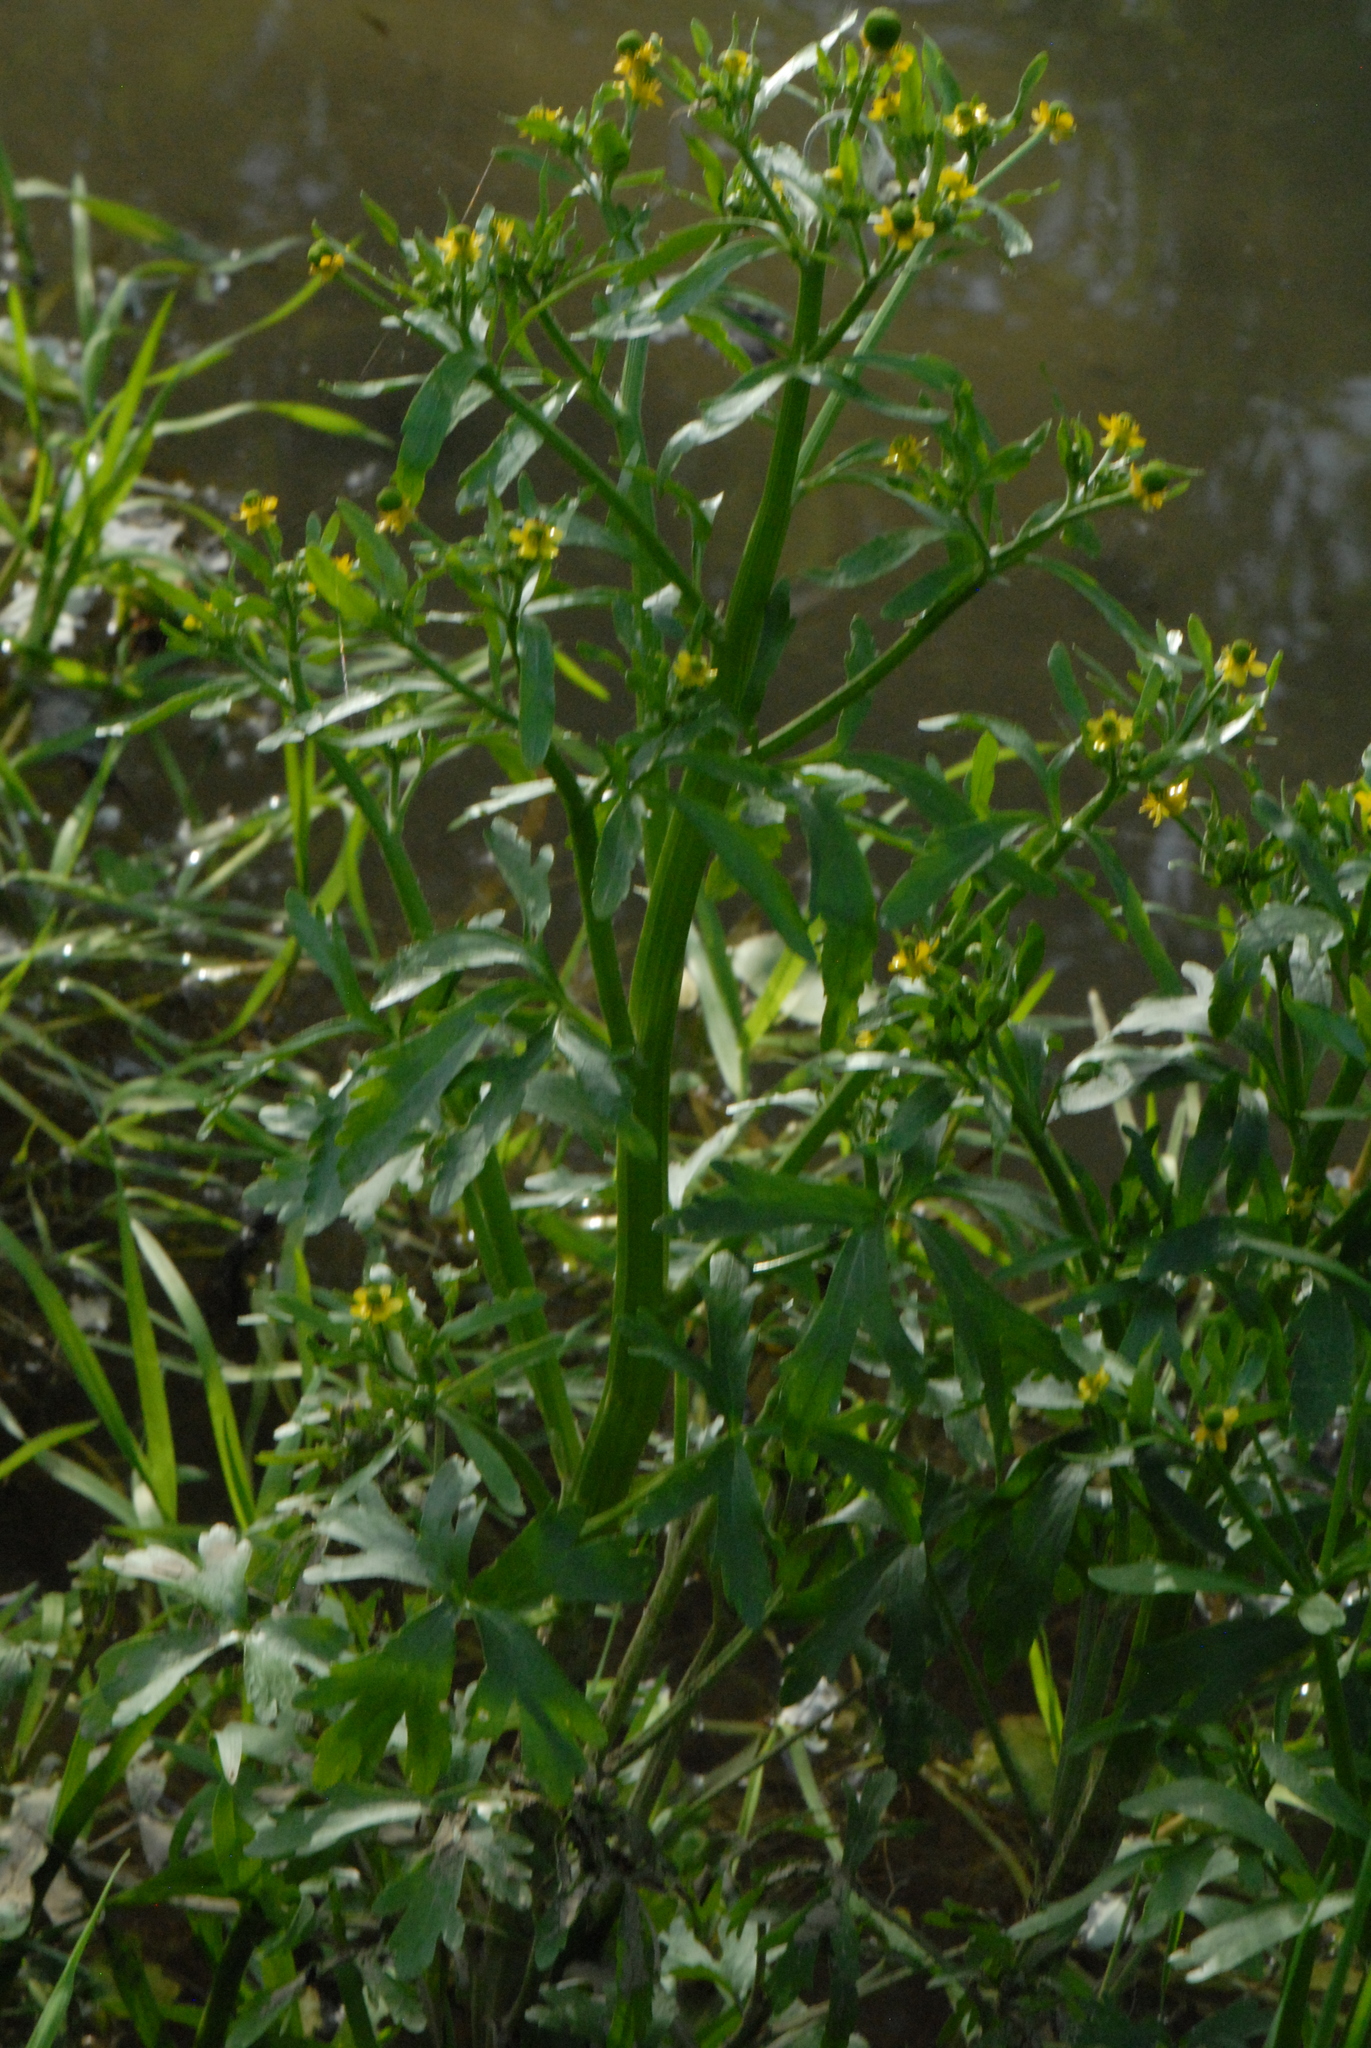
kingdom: Plantae
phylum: Tracheophyta
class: Magnoliopsida
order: Ranunculales
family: Ranunculaceae
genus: Ranunculus
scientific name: Ranunculus sceleratus
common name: Celery-leaved buttercup
